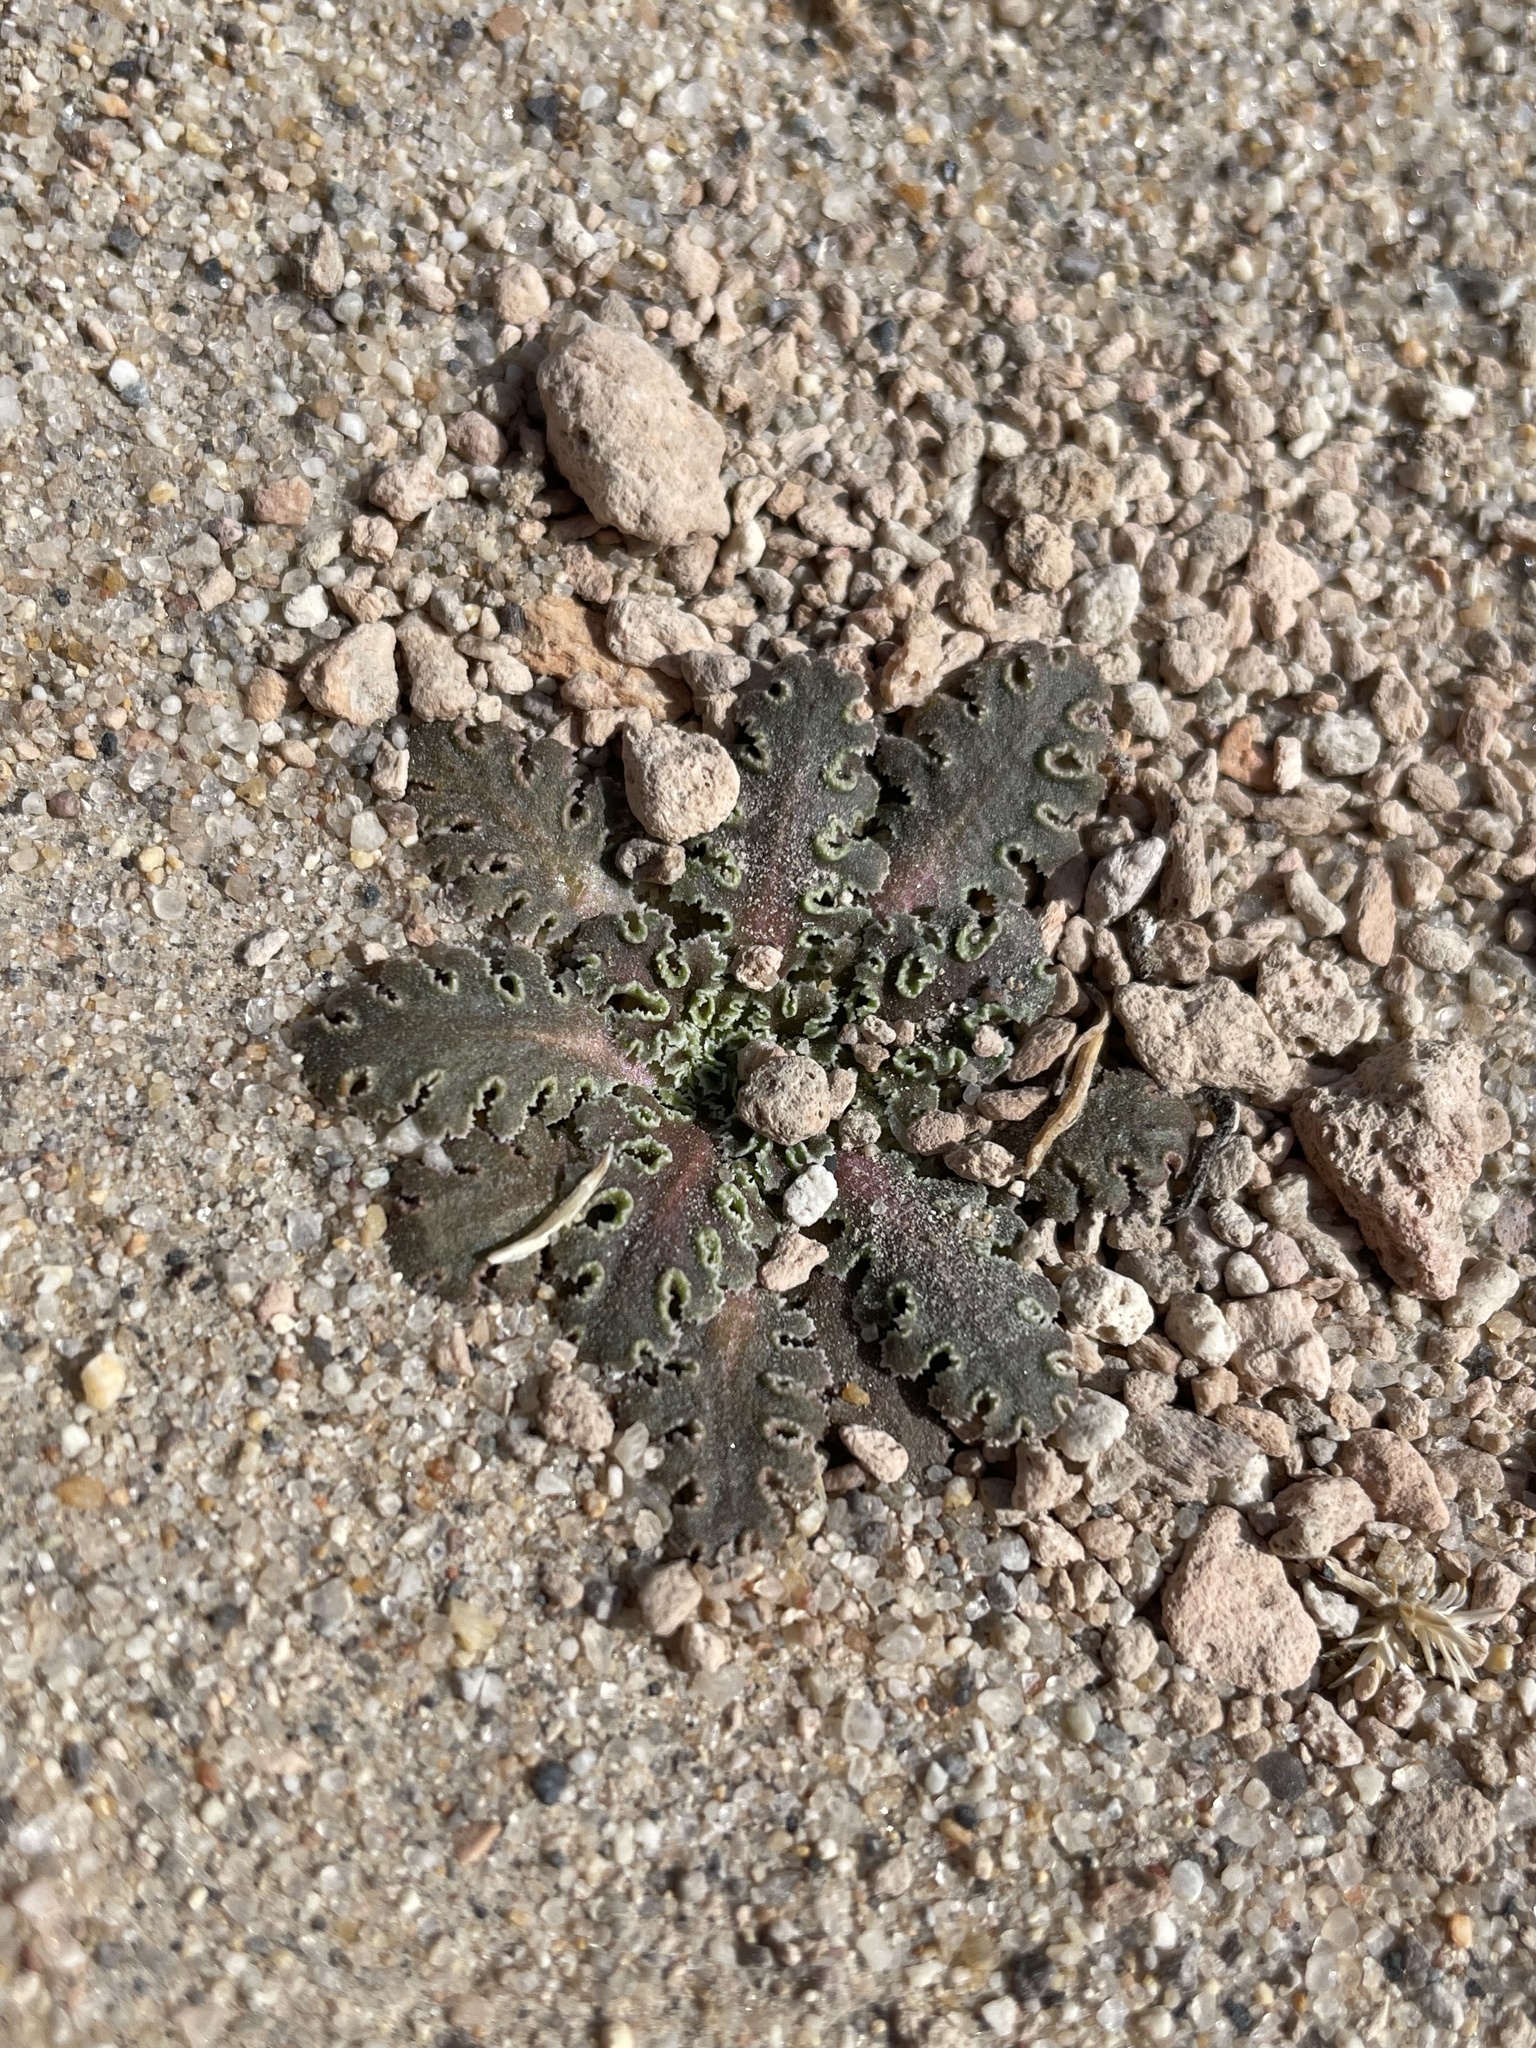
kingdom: Plantae
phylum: Tracheophyta
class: Magnoliopsida
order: Asterales
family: Asteraceae
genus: Glyptopleura
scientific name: Glyptopleura marginata
